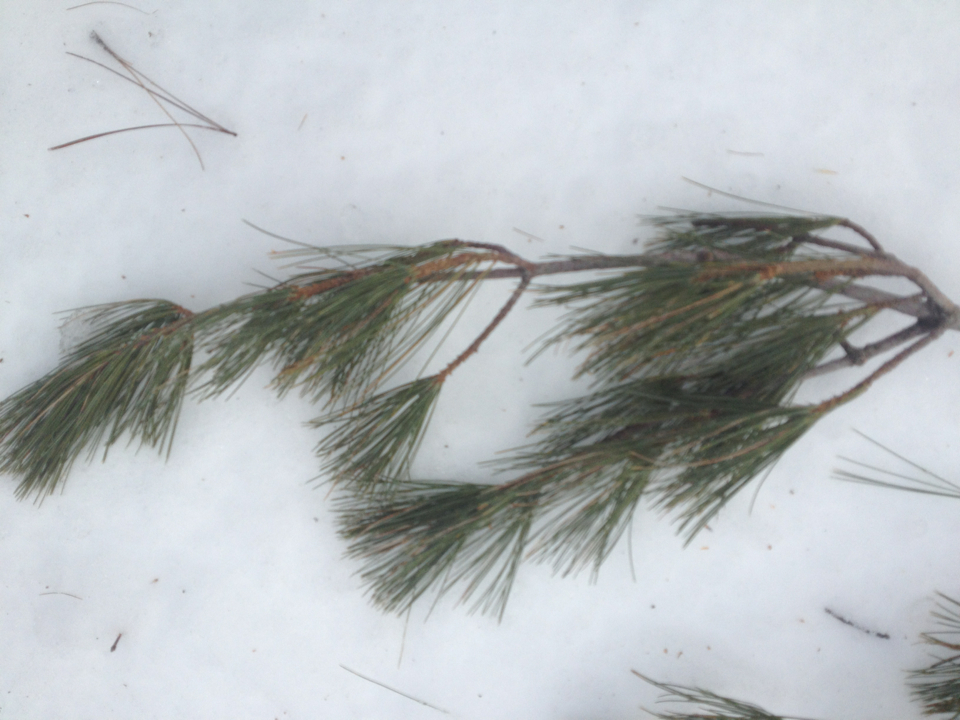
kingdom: Plantae
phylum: Tracheophyta
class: Pinopsida
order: Pinales
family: Pinaceae
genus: Pinus
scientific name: Pinus strobus
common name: Weymouth pine
